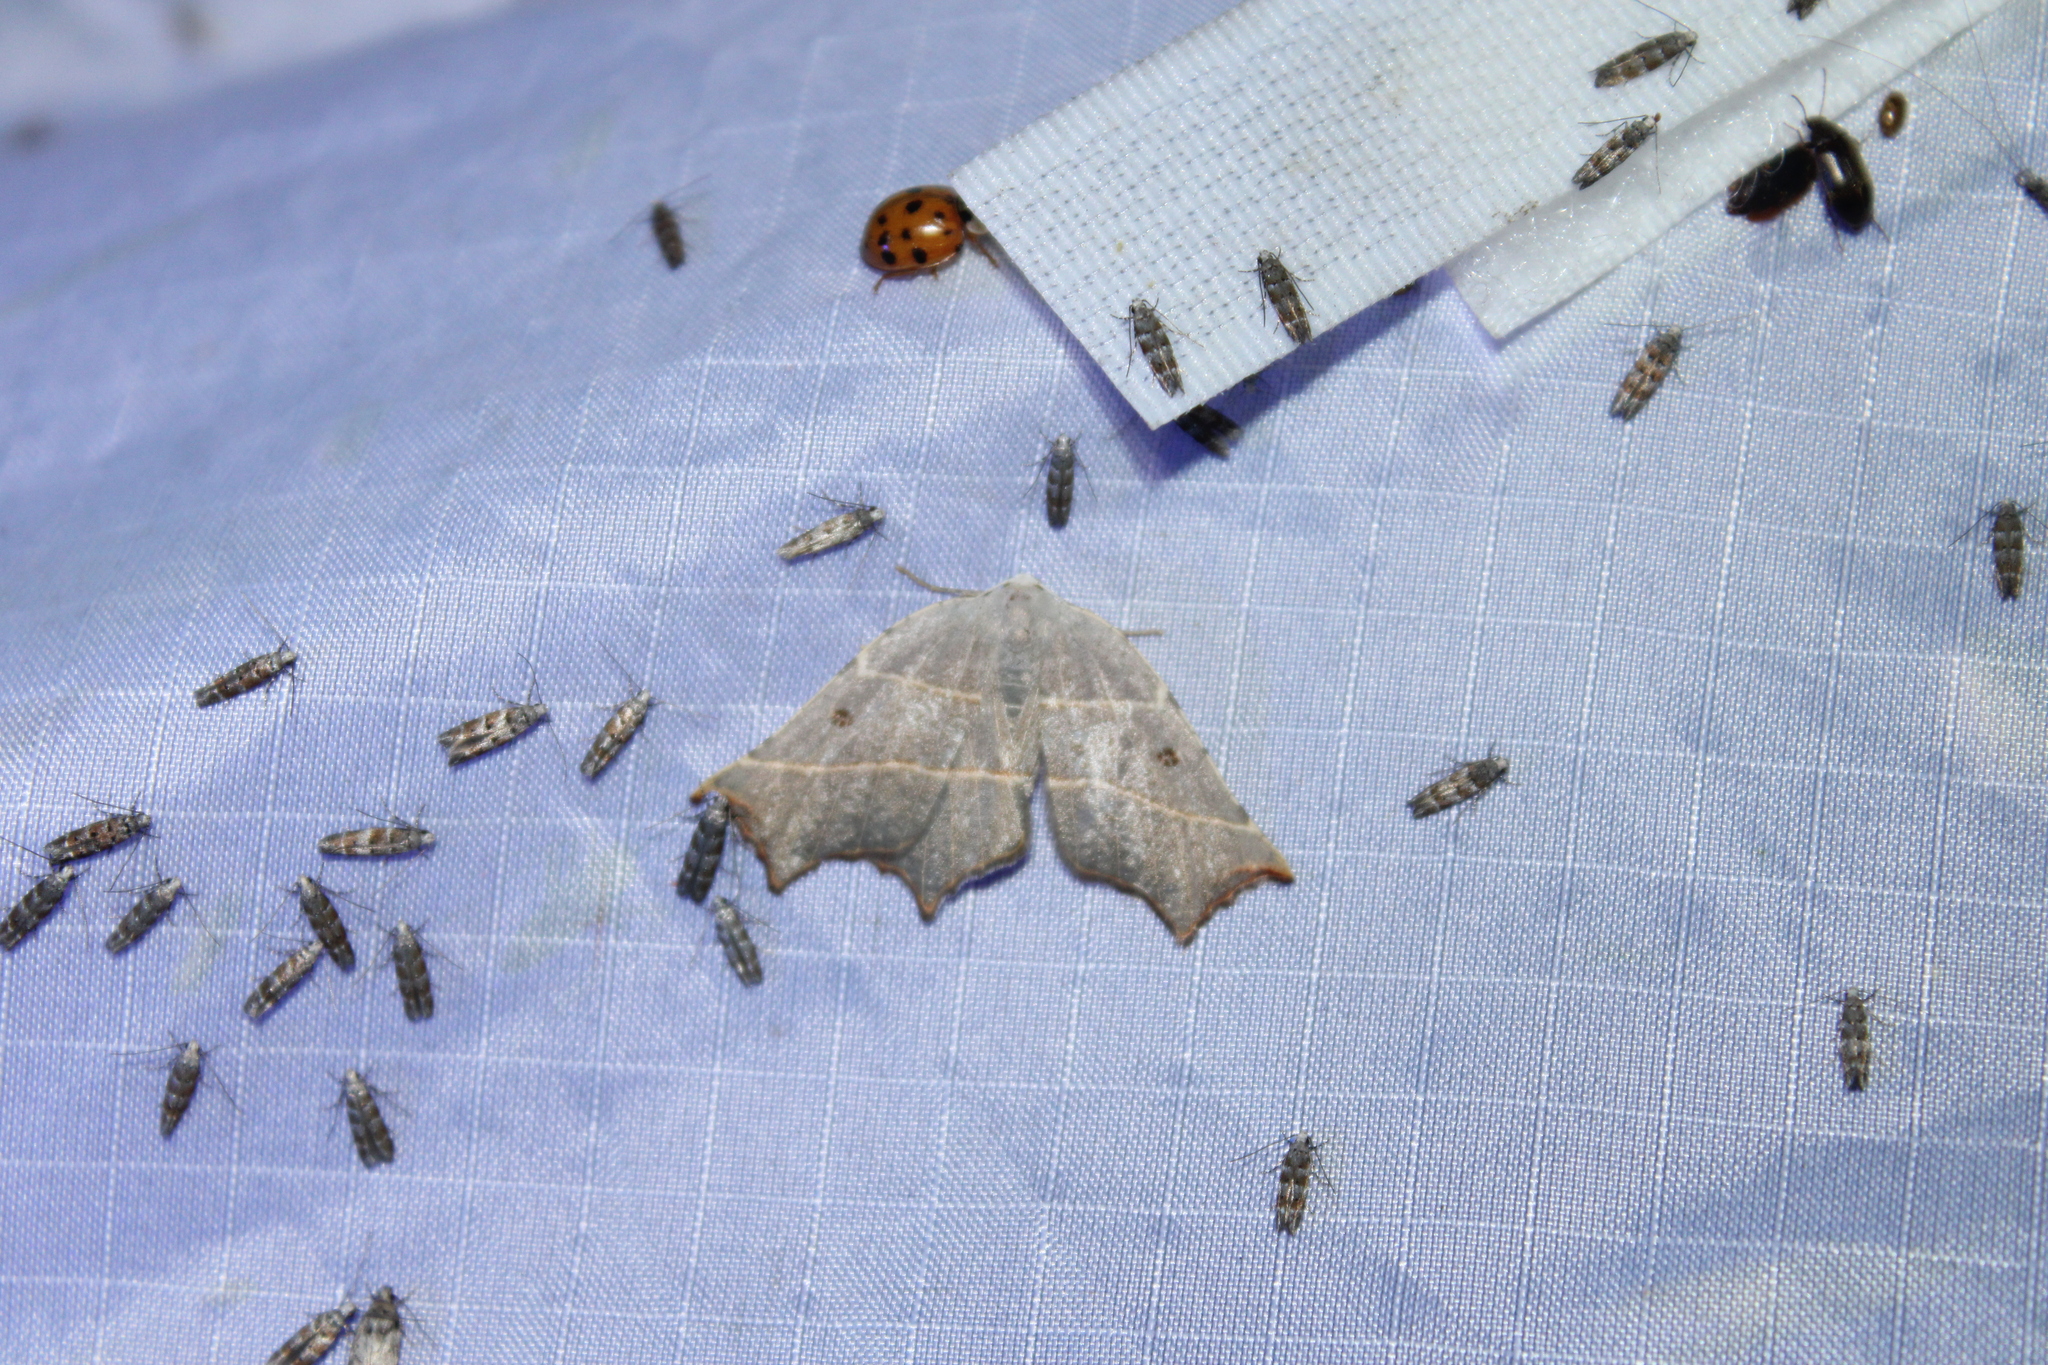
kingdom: Animalia
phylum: Arthropoda
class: Insecta
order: Lepidoptera
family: Geometridae
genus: Metanema
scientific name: Metanema inatomaria
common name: Pale metanema
